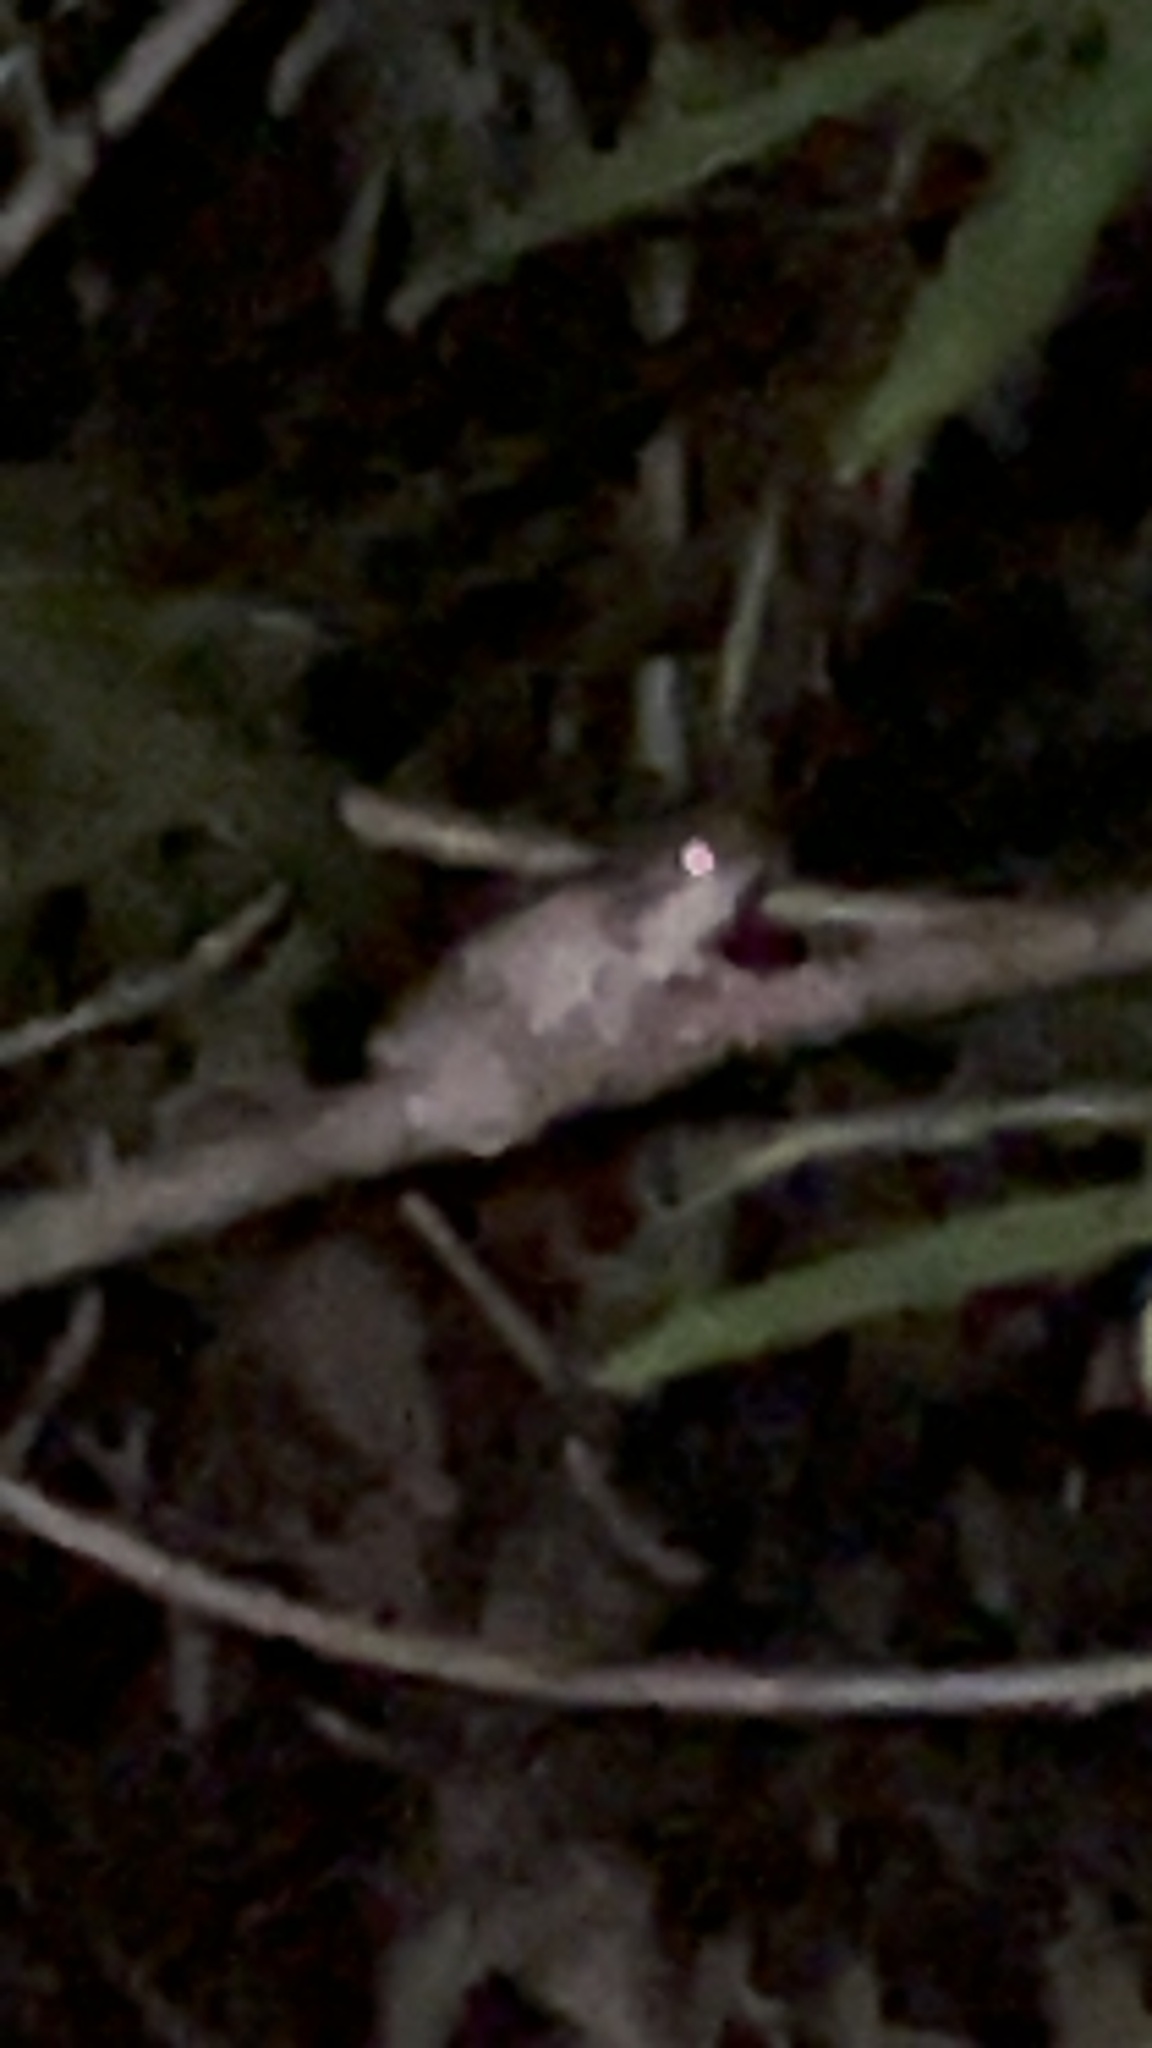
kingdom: Animalia
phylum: Chordata
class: Amphibia
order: Anura
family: Hylidae
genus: Trachycephalus
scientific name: Trachycephalus vermiculatus
